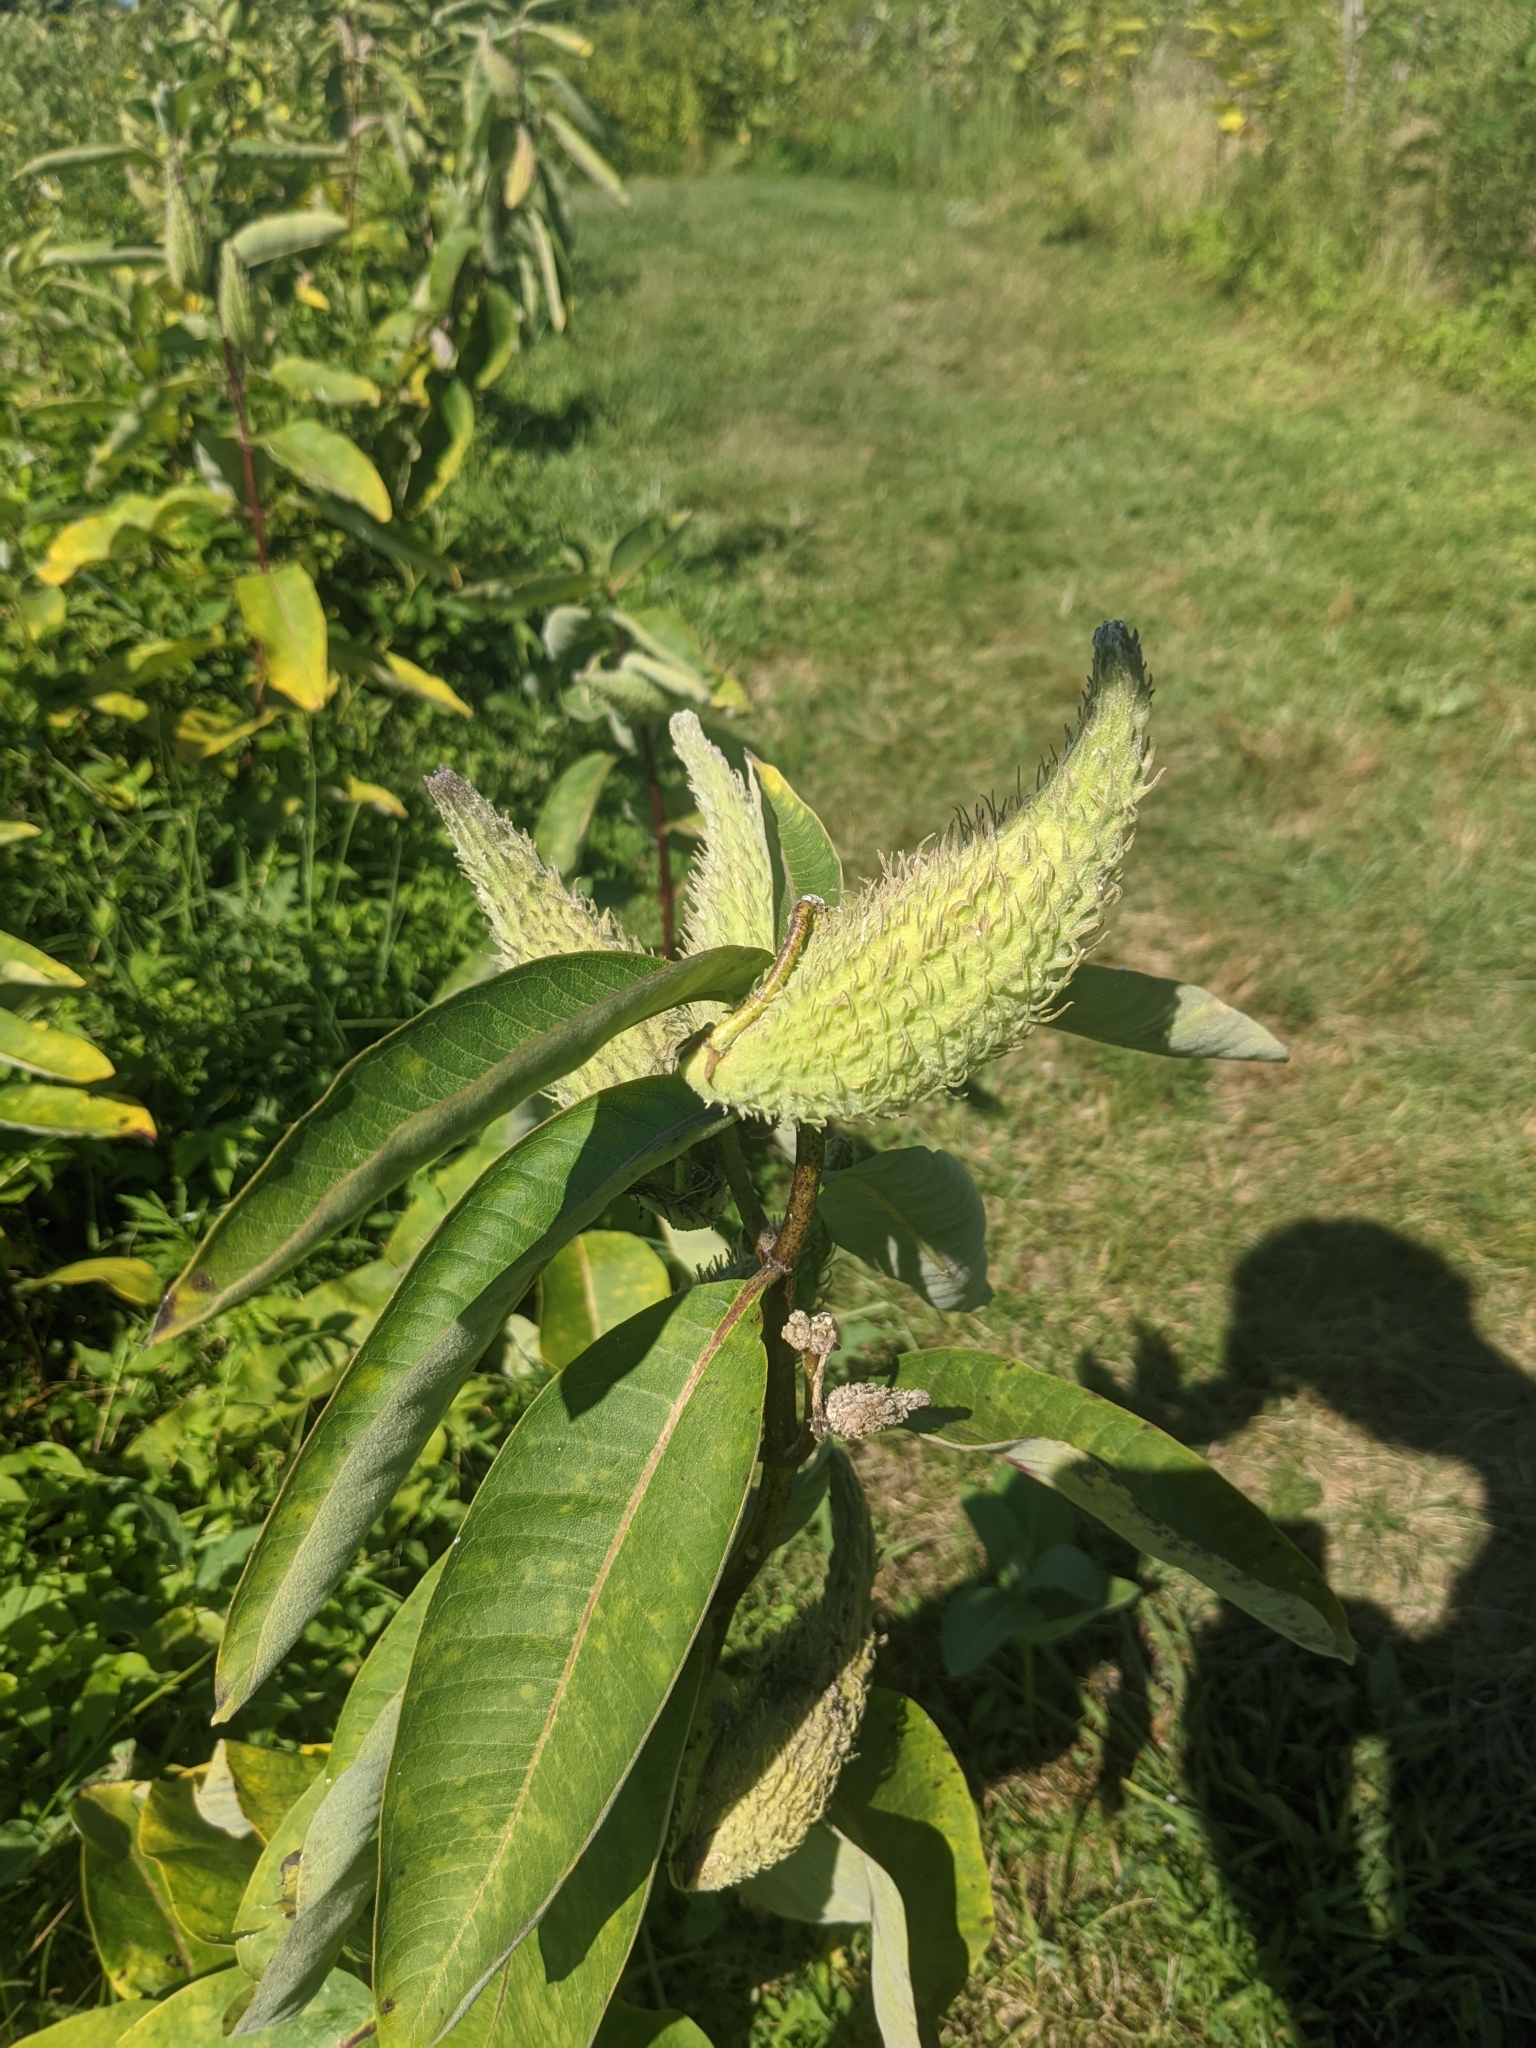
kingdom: Plantae
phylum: Tracheophyta
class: Magnoliopsida
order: Gentianales
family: Apocynaceae
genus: Asclepias
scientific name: Asclepias syriaca
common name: Common milkweed
